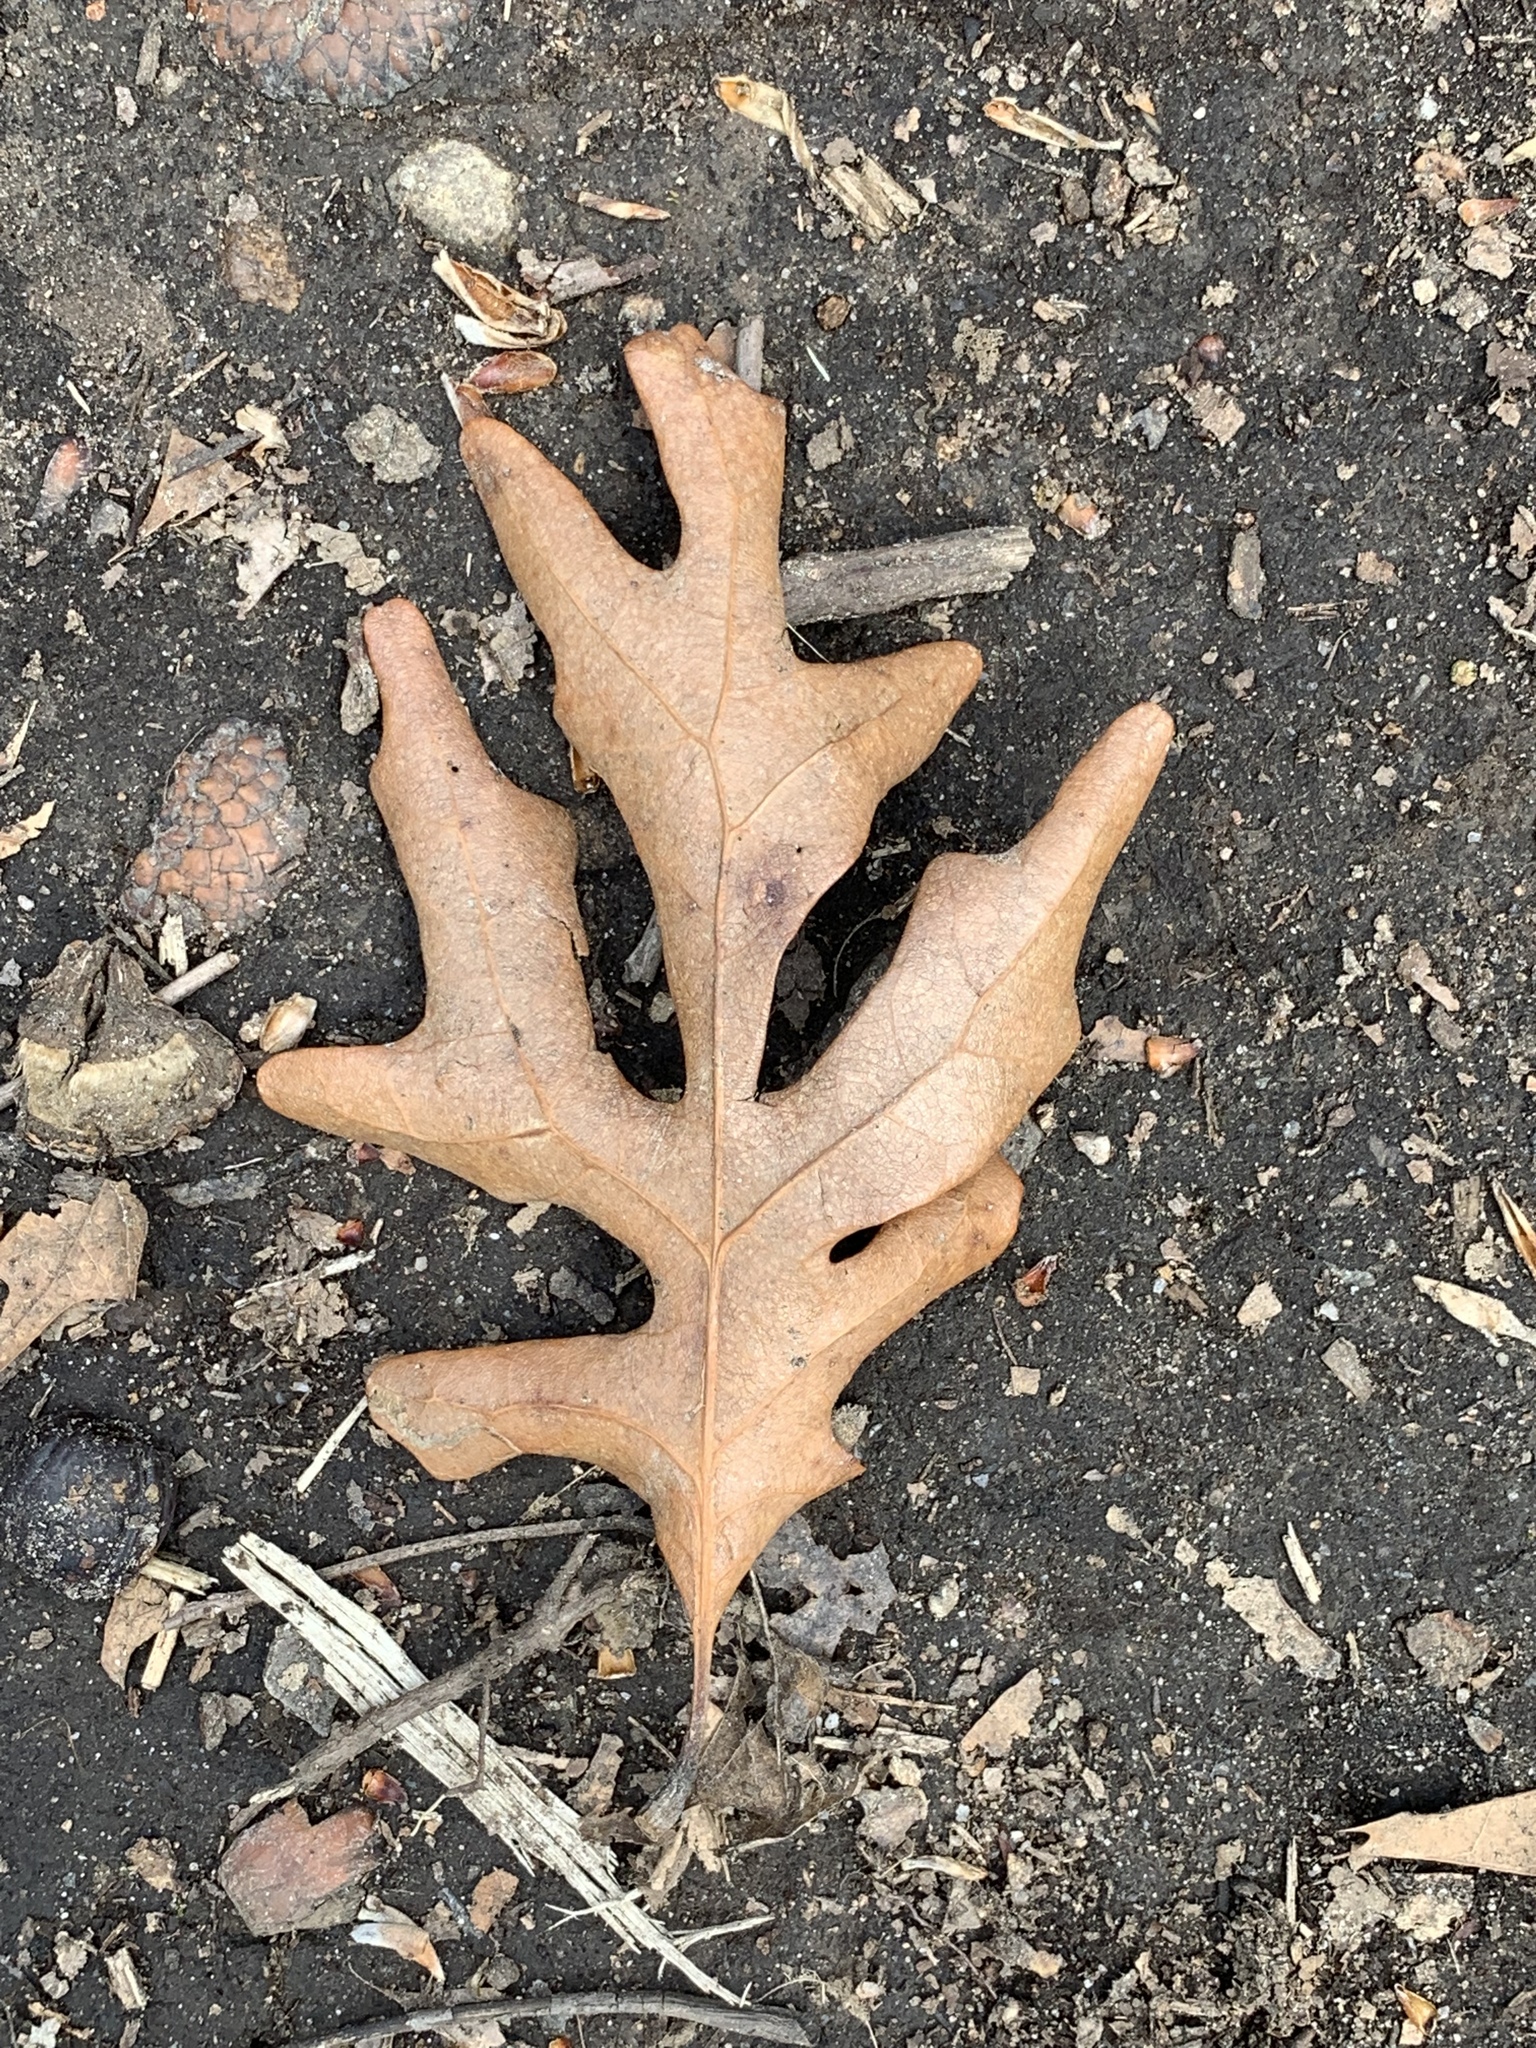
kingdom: Plantae
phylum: Tracheophyta
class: Magnoliopsida
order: Fagales
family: Fagaceae
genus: Quercus
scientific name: Quercus alba
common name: White oak
